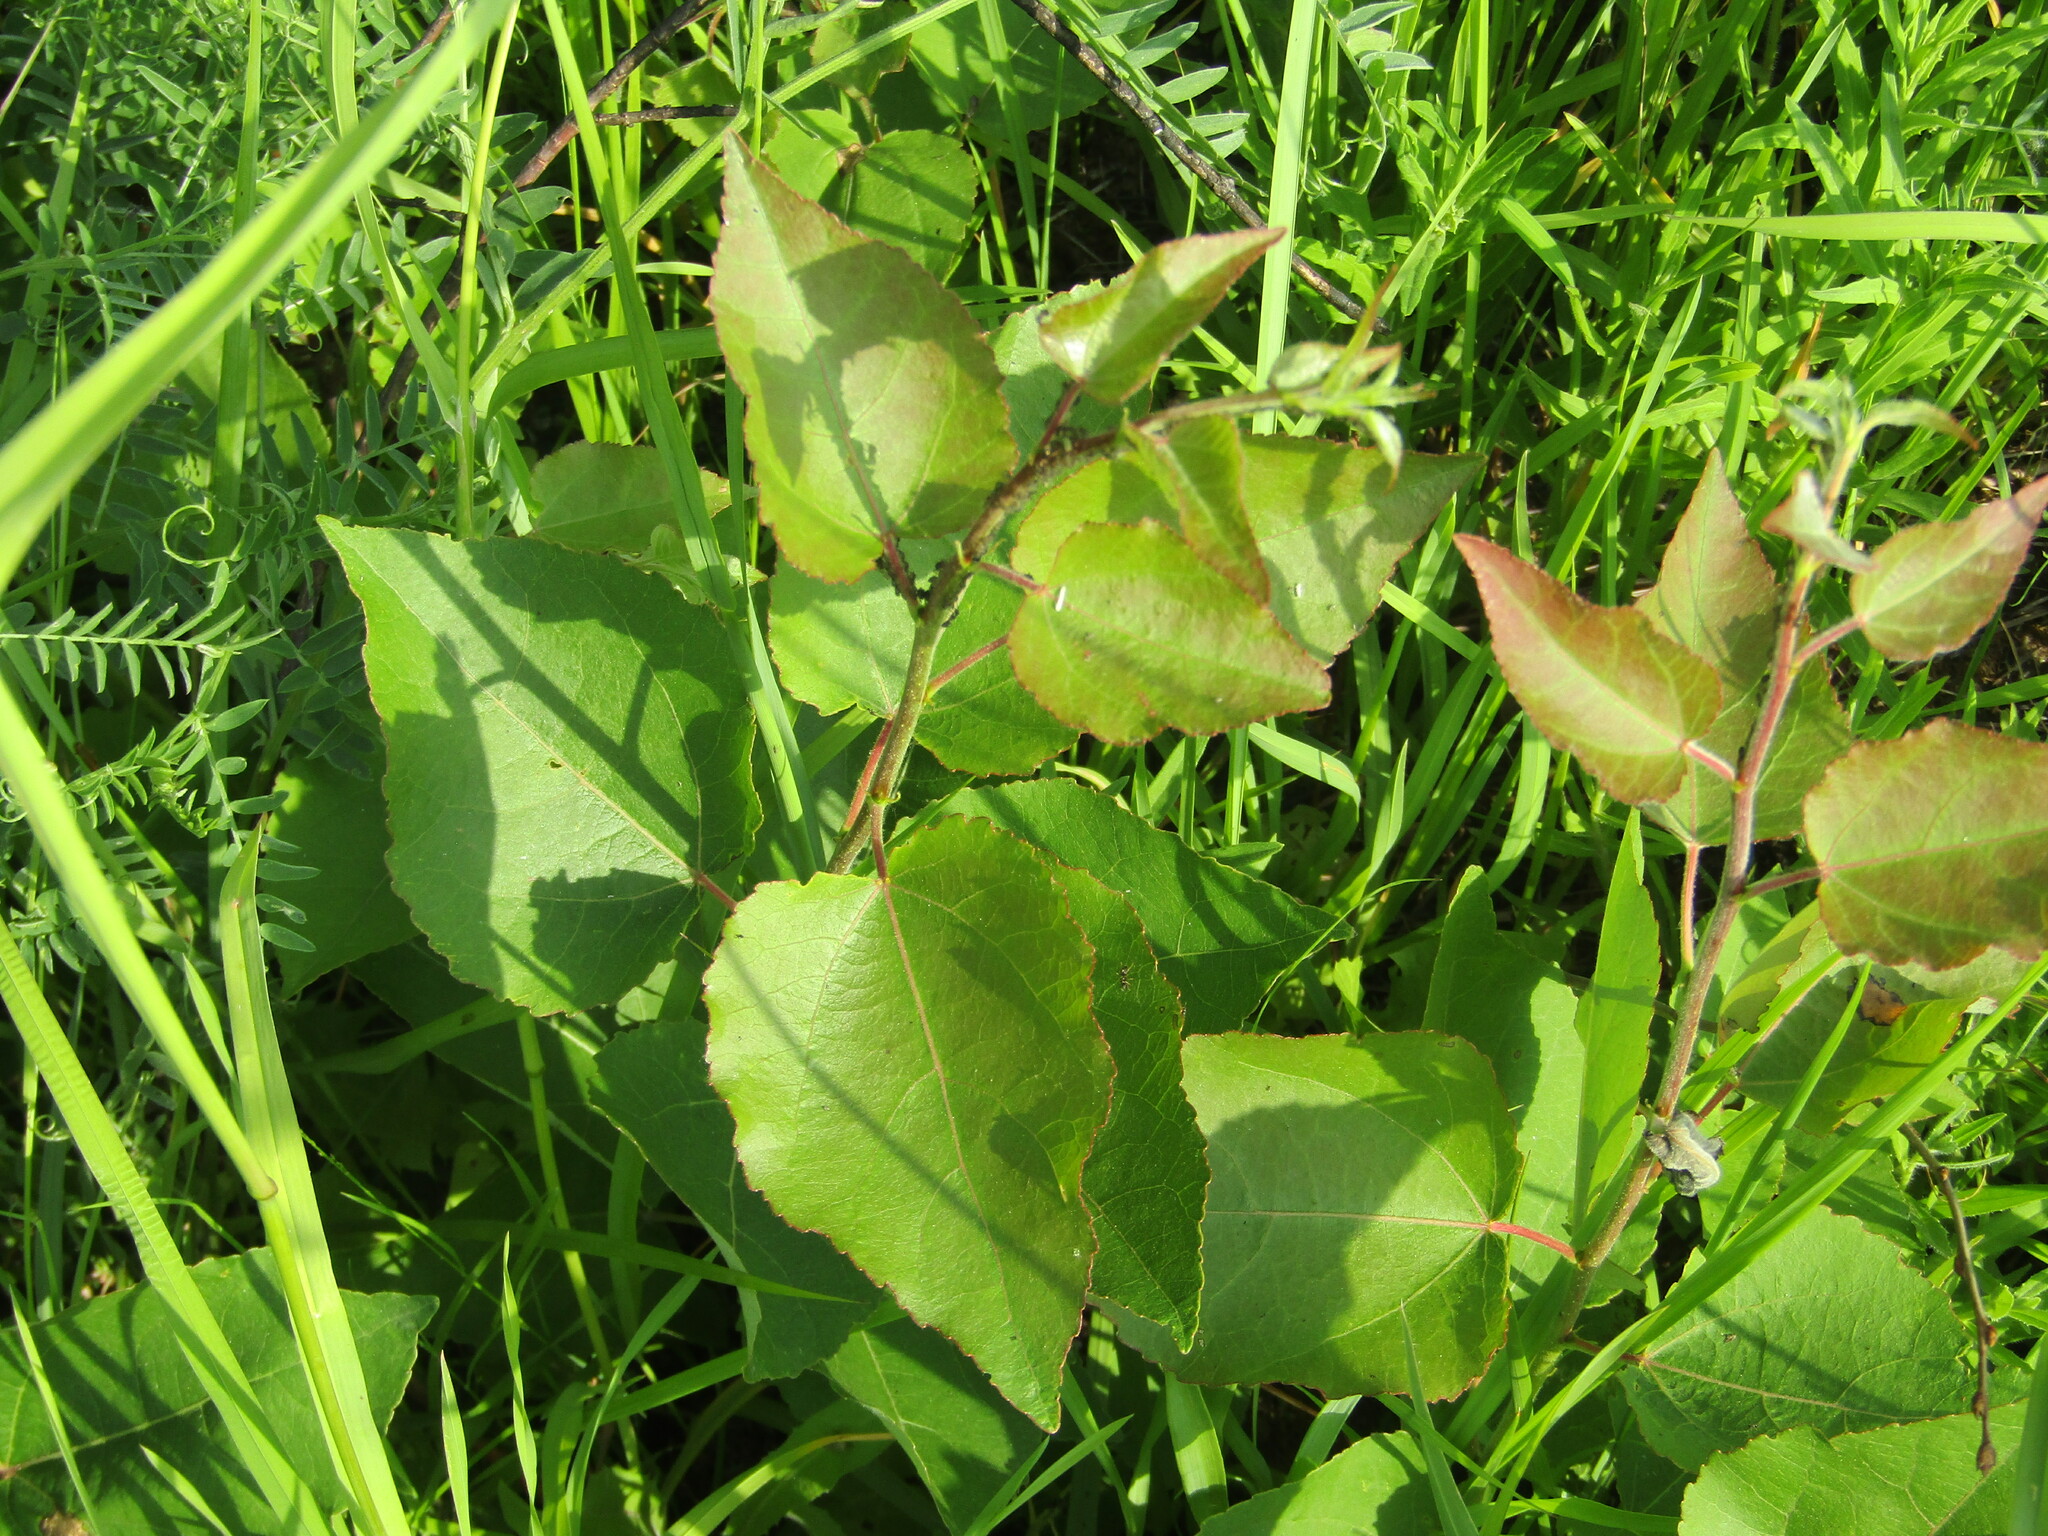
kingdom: Plantae
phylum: Tracheophyta
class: Magnoliopsida
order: Malpighiales
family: Salicaceae
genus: Populus
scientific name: Populus tremula
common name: European aspen
